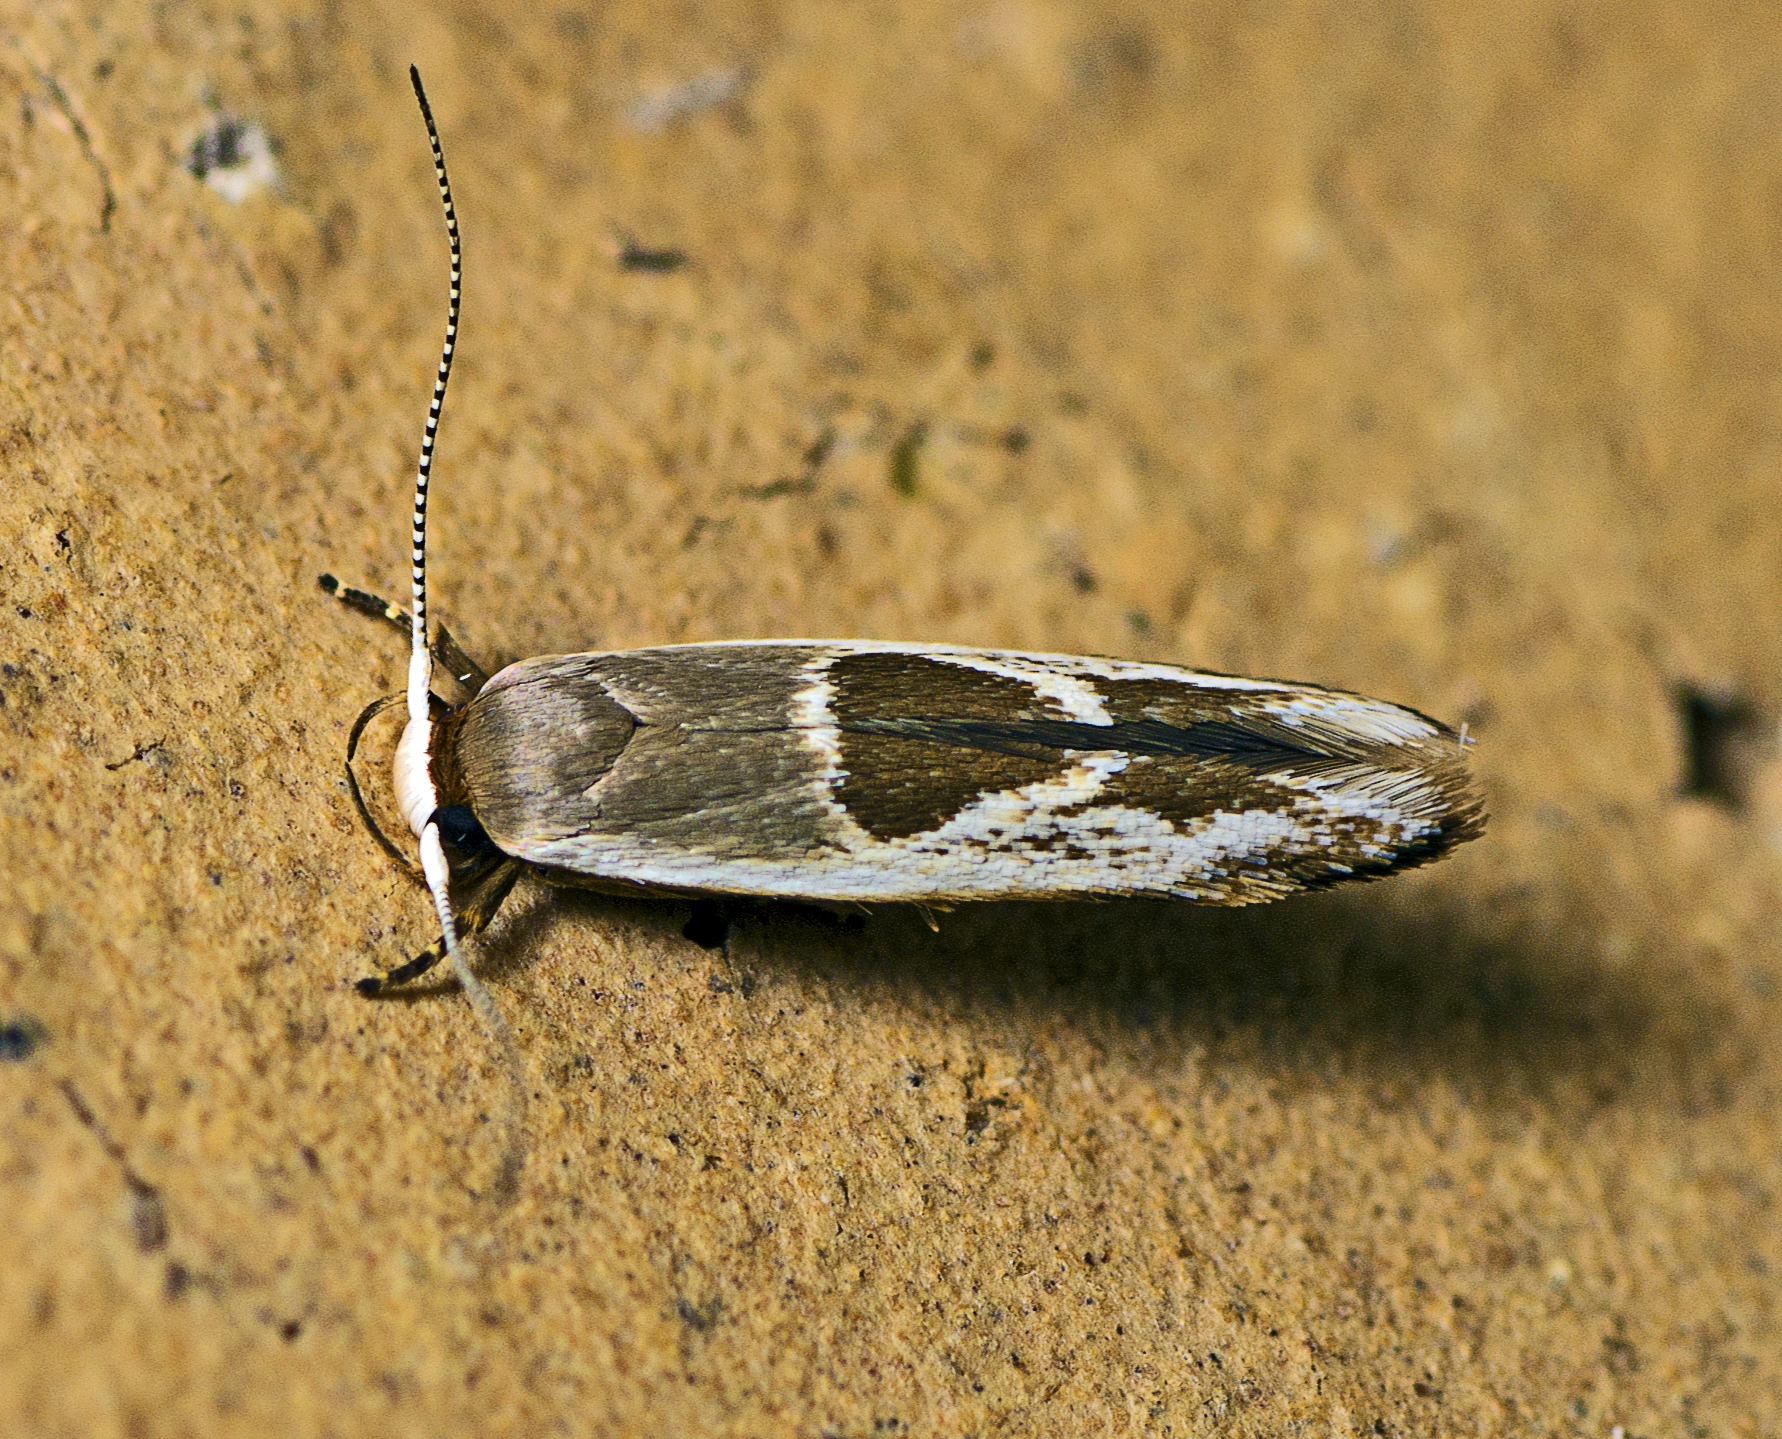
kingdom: Animalia
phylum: Arthropoda
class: Insecta
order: Lepidoptera
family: Stathmopodidae
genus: Stathmopoda
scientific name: Stathmopoda megathyma
